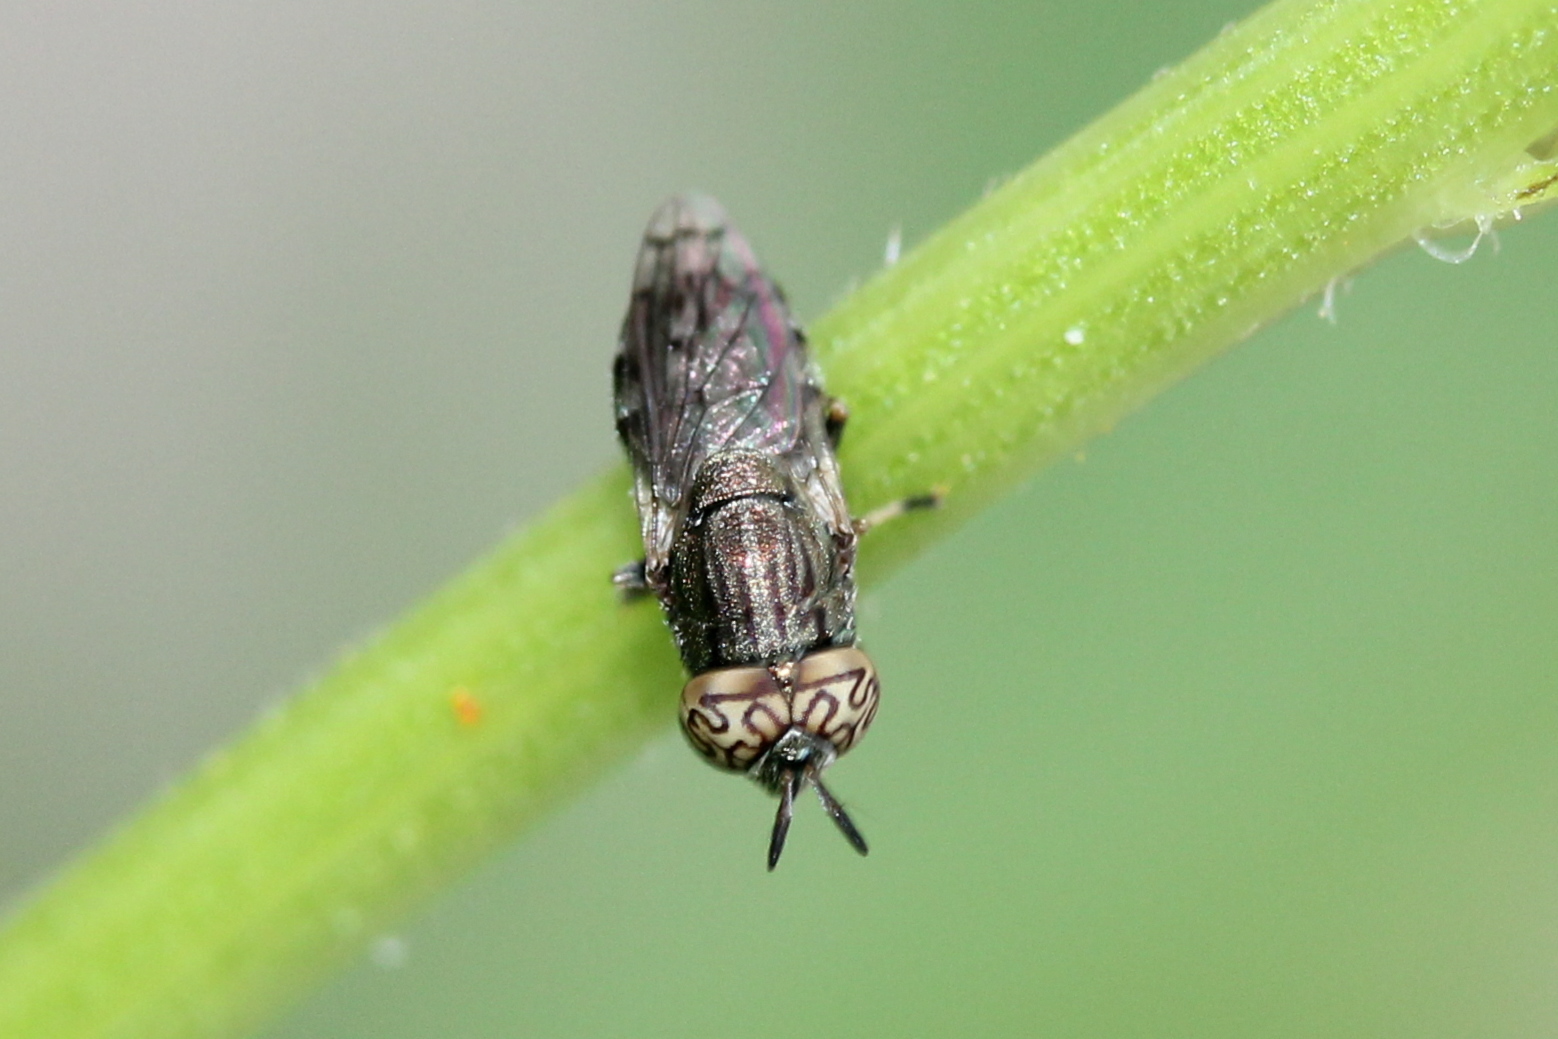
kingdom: Animalia
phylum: Arthropoda
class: Insecta
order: Diptera
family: Syrphidae
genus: Orthonevra
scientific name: Orthonevra nitida
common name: Wavy mucksucker
